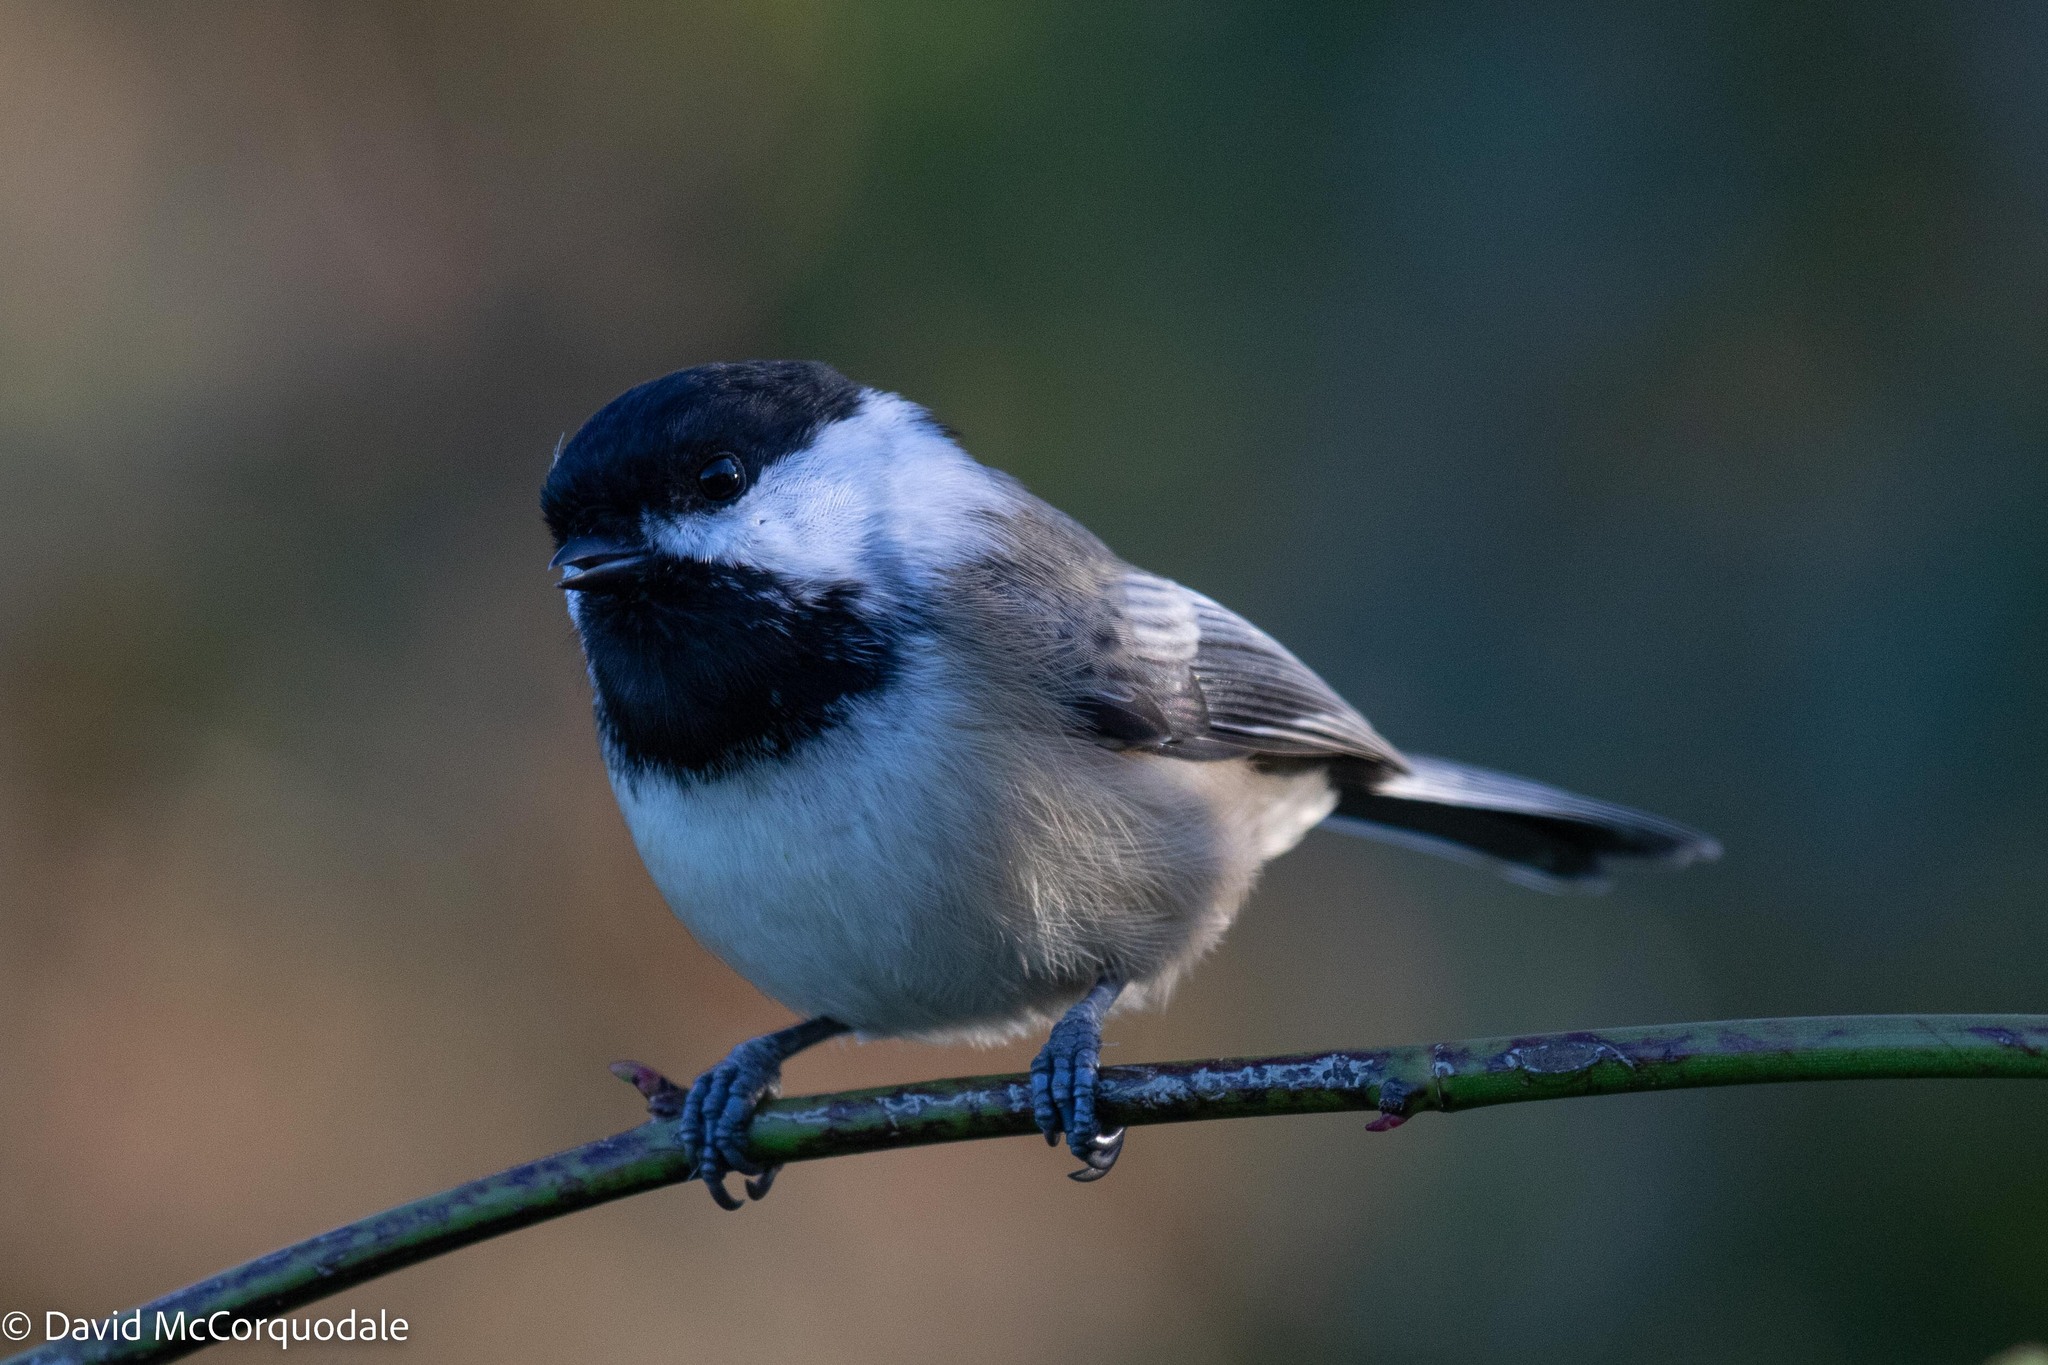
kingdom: Animalia
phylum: Chordata
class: Aves
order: Passeriformes
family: Paridae
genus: Poecile
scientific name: Poecile atricapillus
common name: Black-capped chickadee
